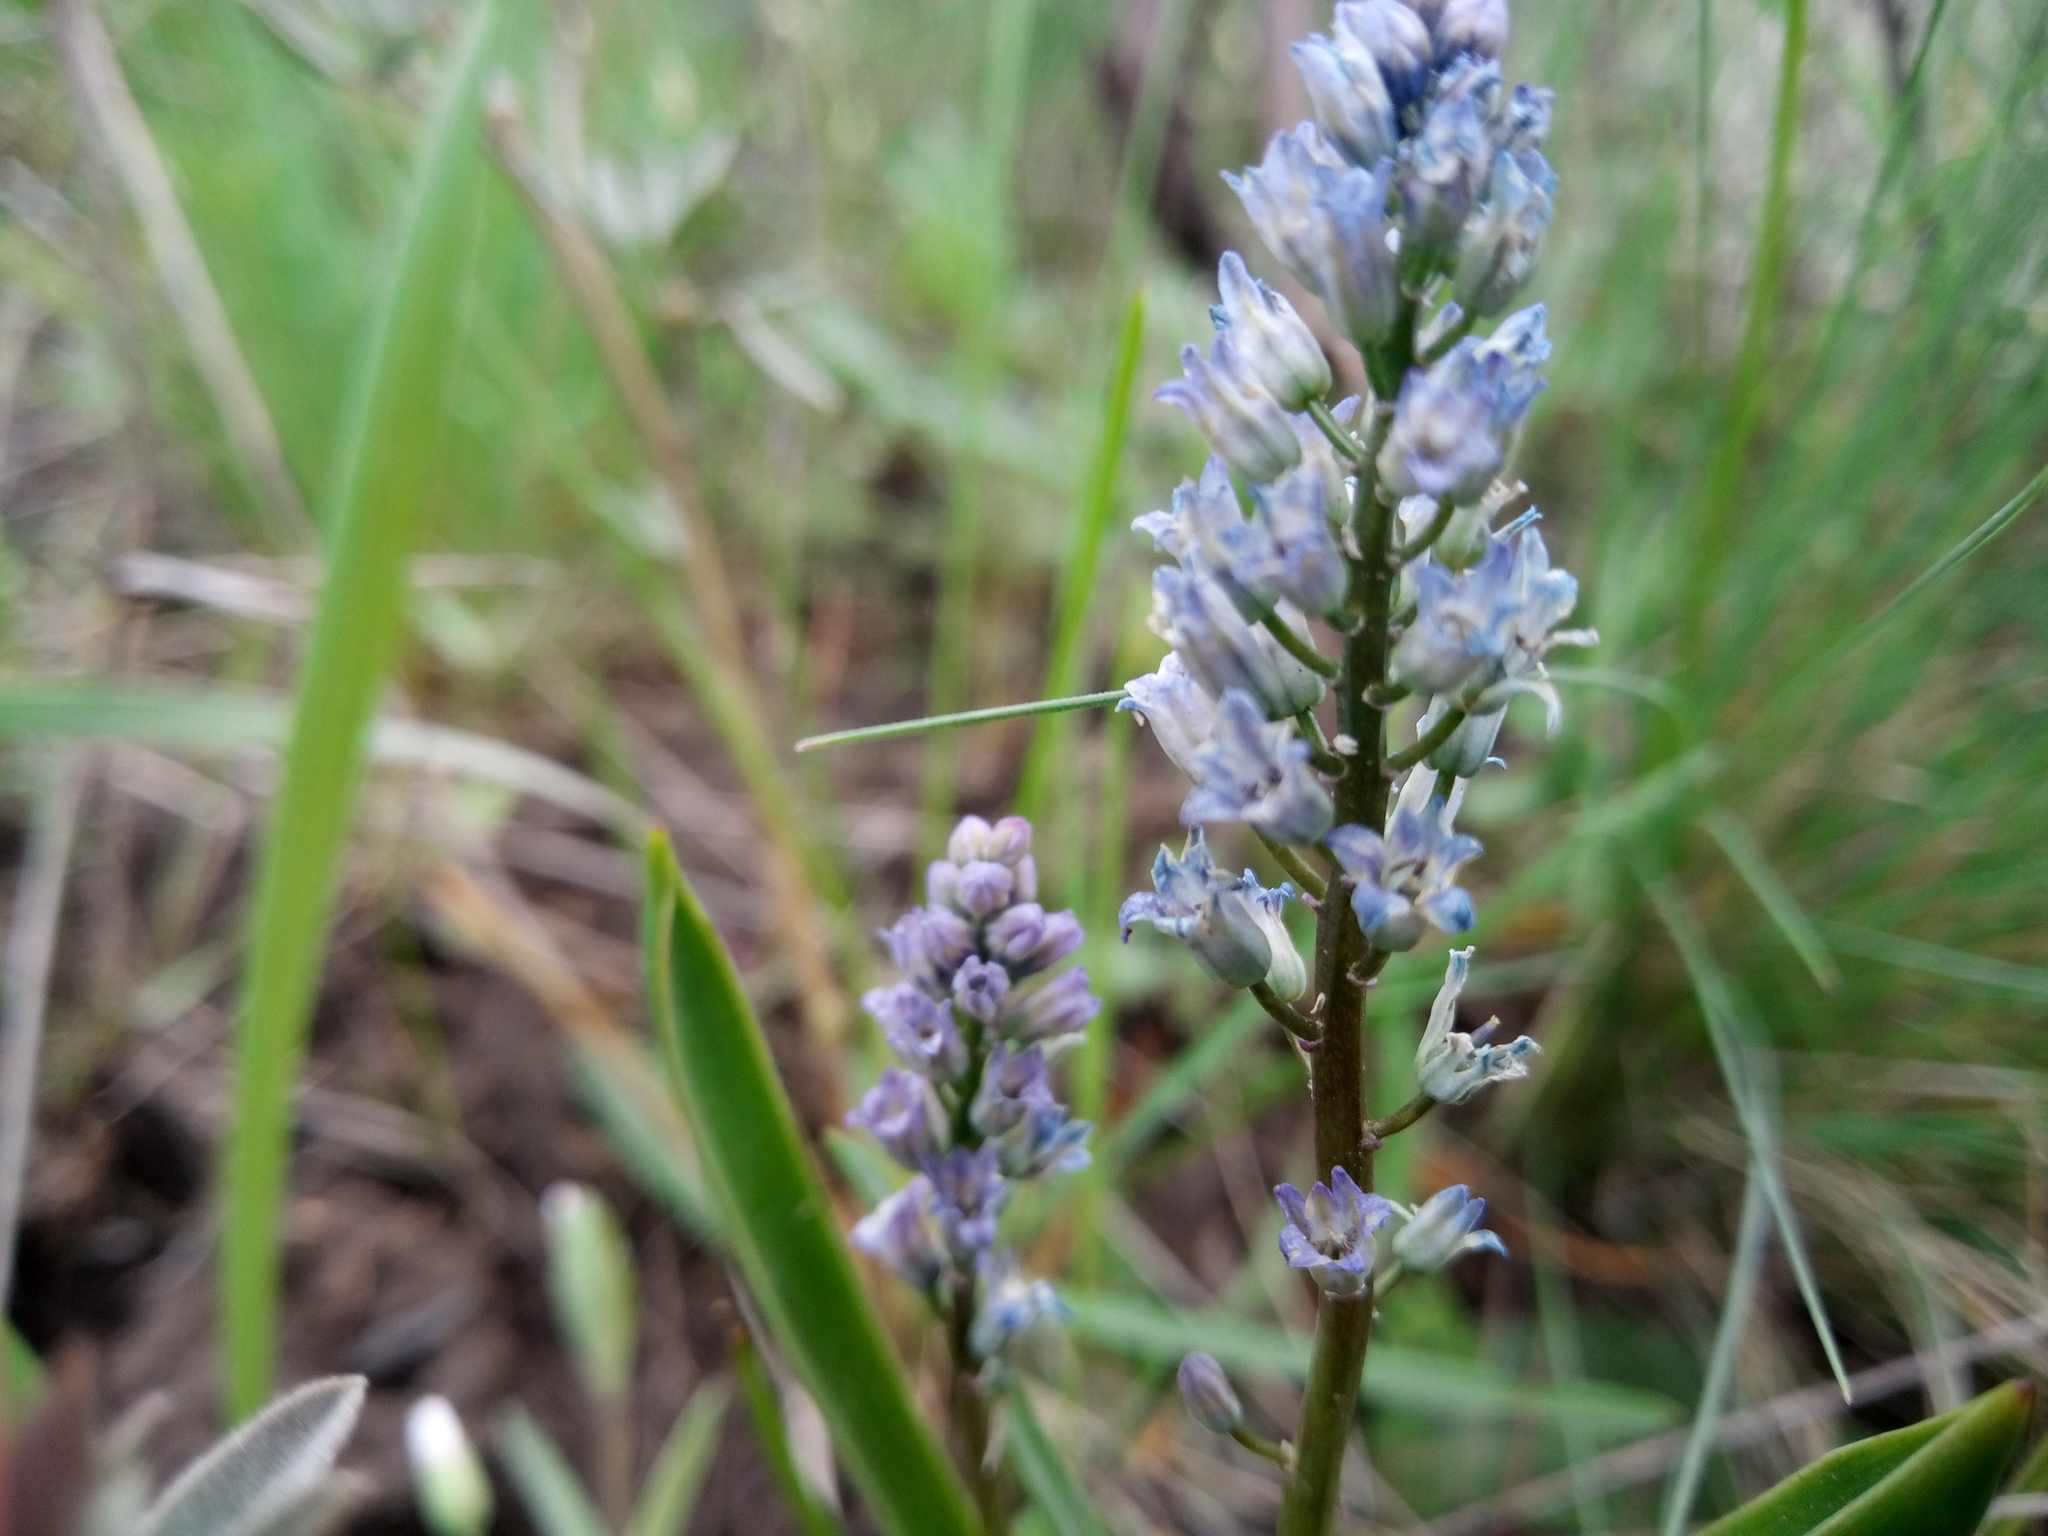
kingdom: Plantae
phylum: Tracheophyta
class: Liliopsida
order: Asparagales
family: Asparagaceae
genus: Hyacinthella
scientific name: Hyacinthella leucophaea
